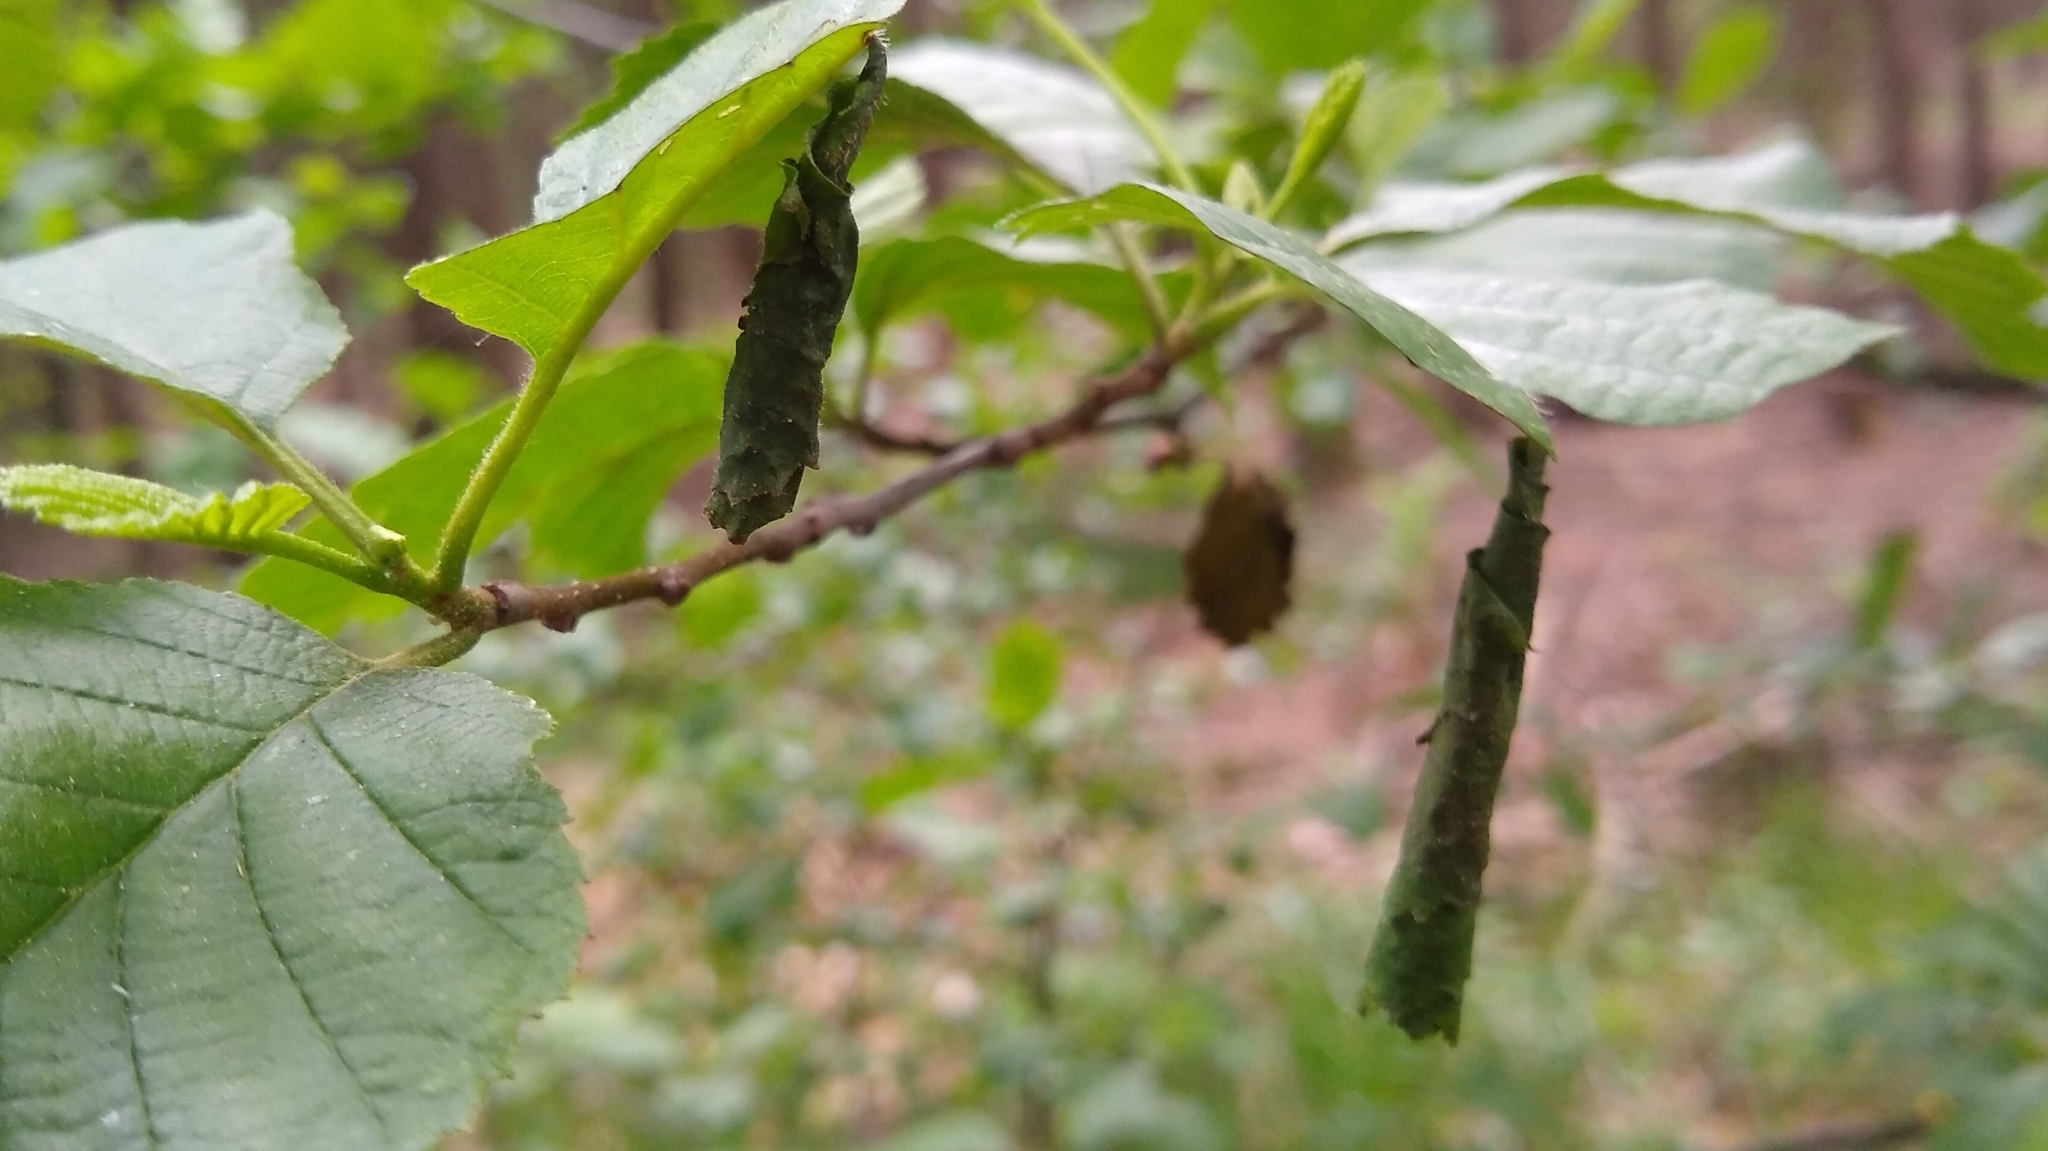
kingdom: Animalia
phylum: Arthropoda
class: Insecta
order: Coleoptera
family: Attelabidae
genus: Deporaus
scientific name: Deporaus betulae
